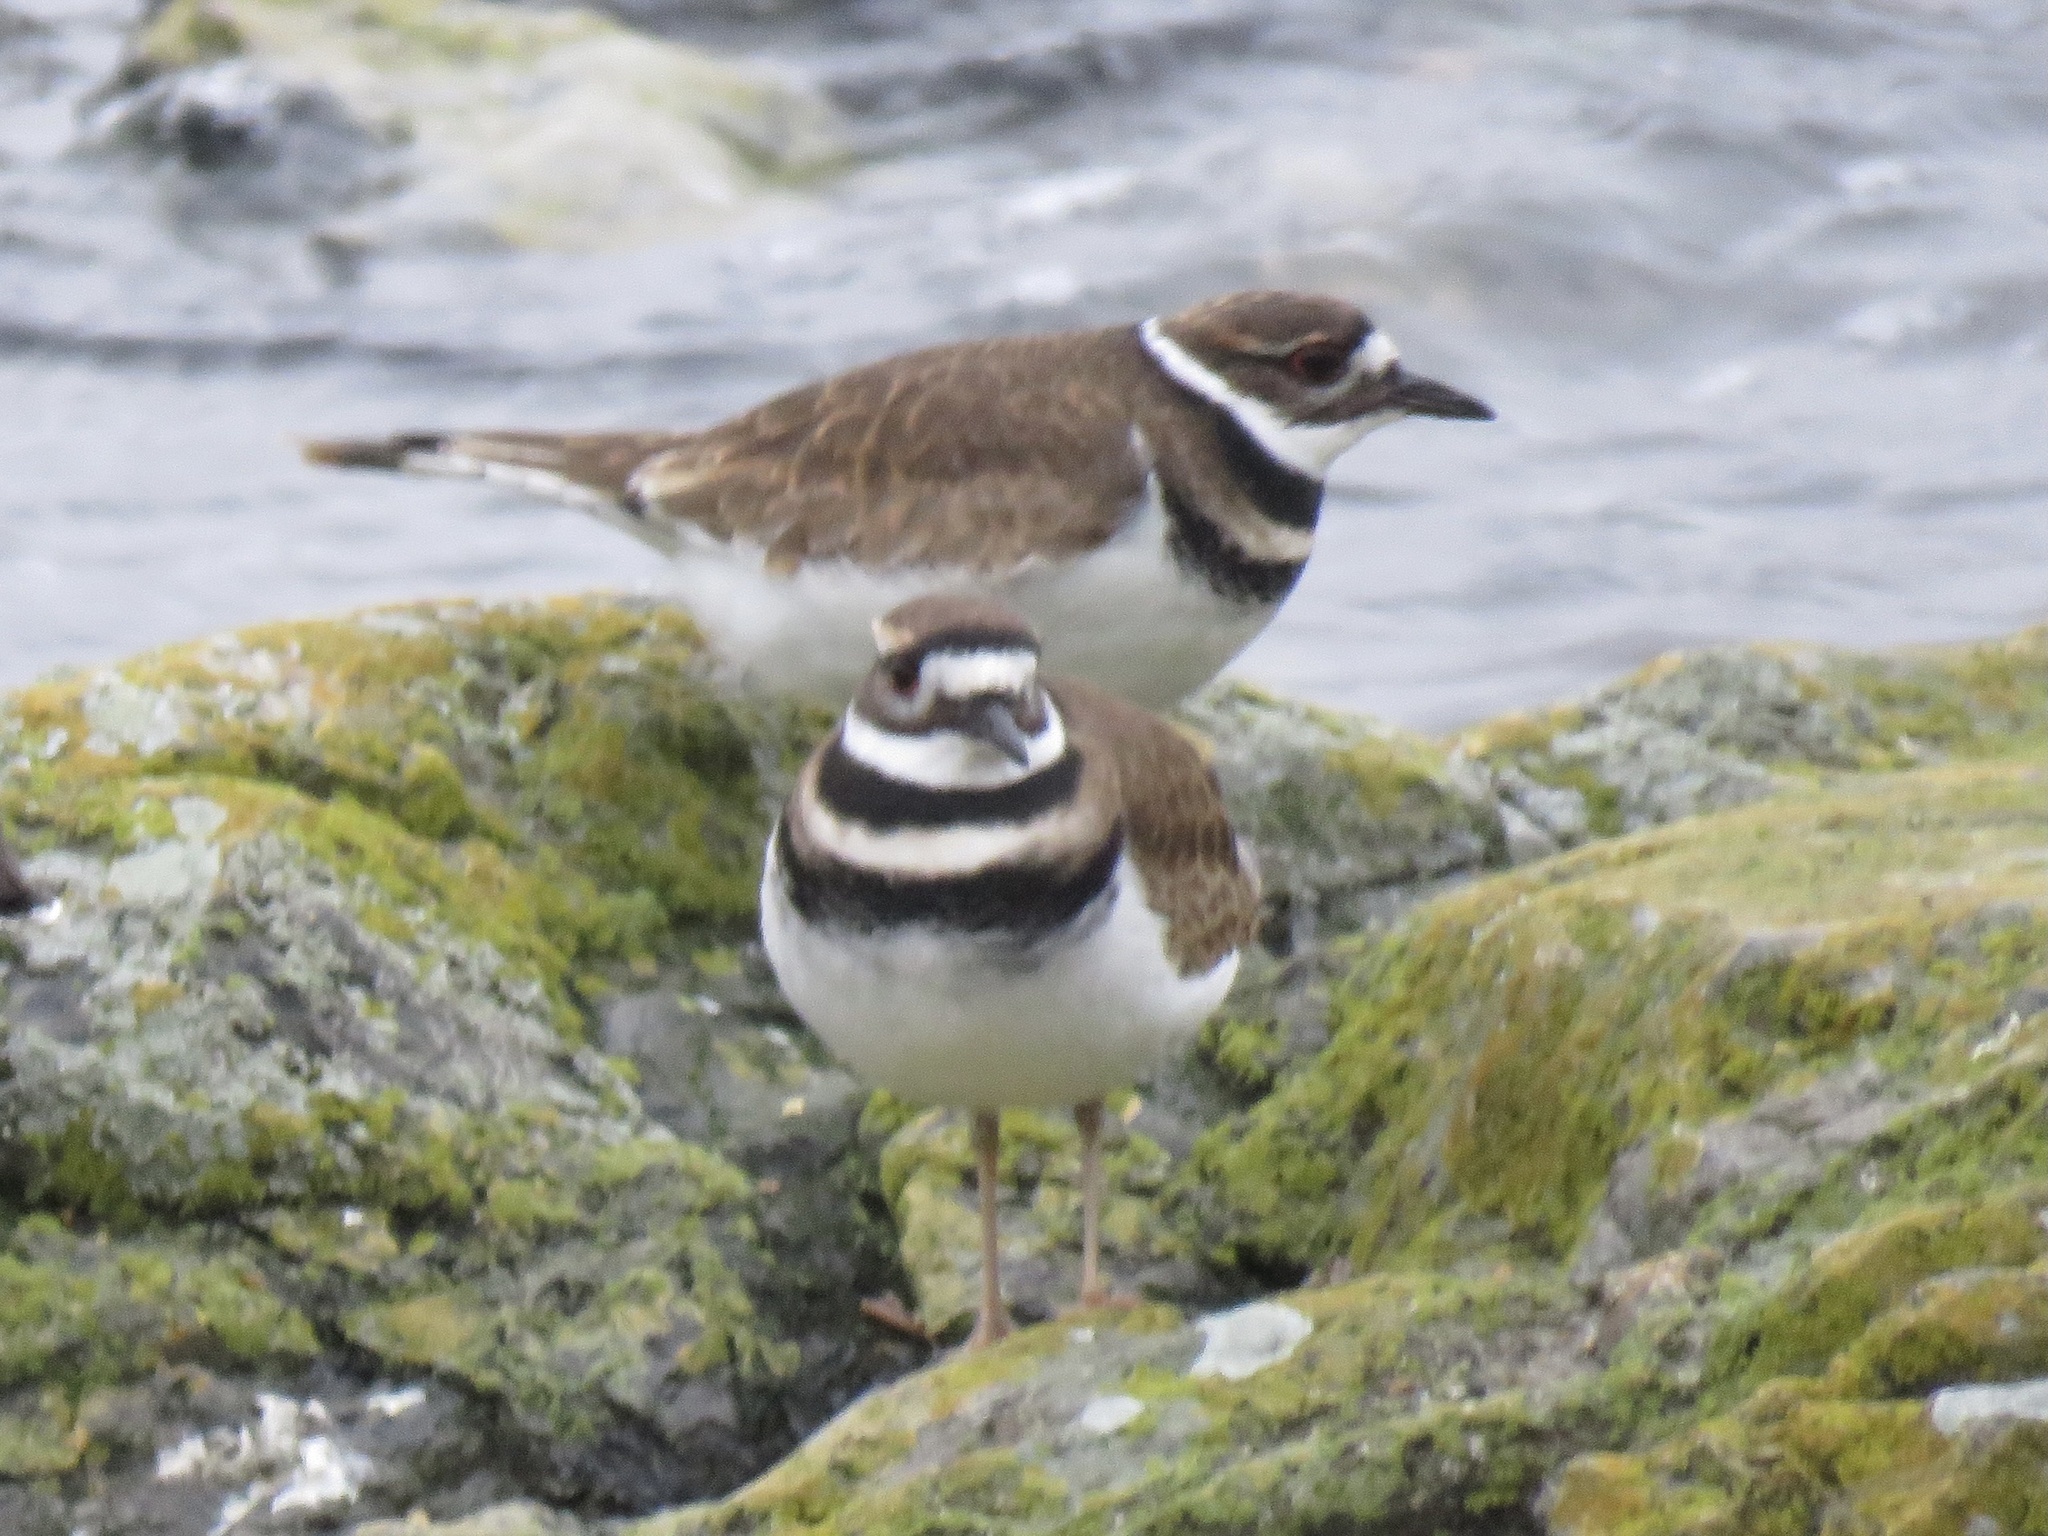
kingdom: Animalia
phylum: Chordata
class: Aves
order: Charadriiformes
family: Charadriidae
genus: Charadrius
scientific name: Charadrius vociferus
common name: Killdeer
